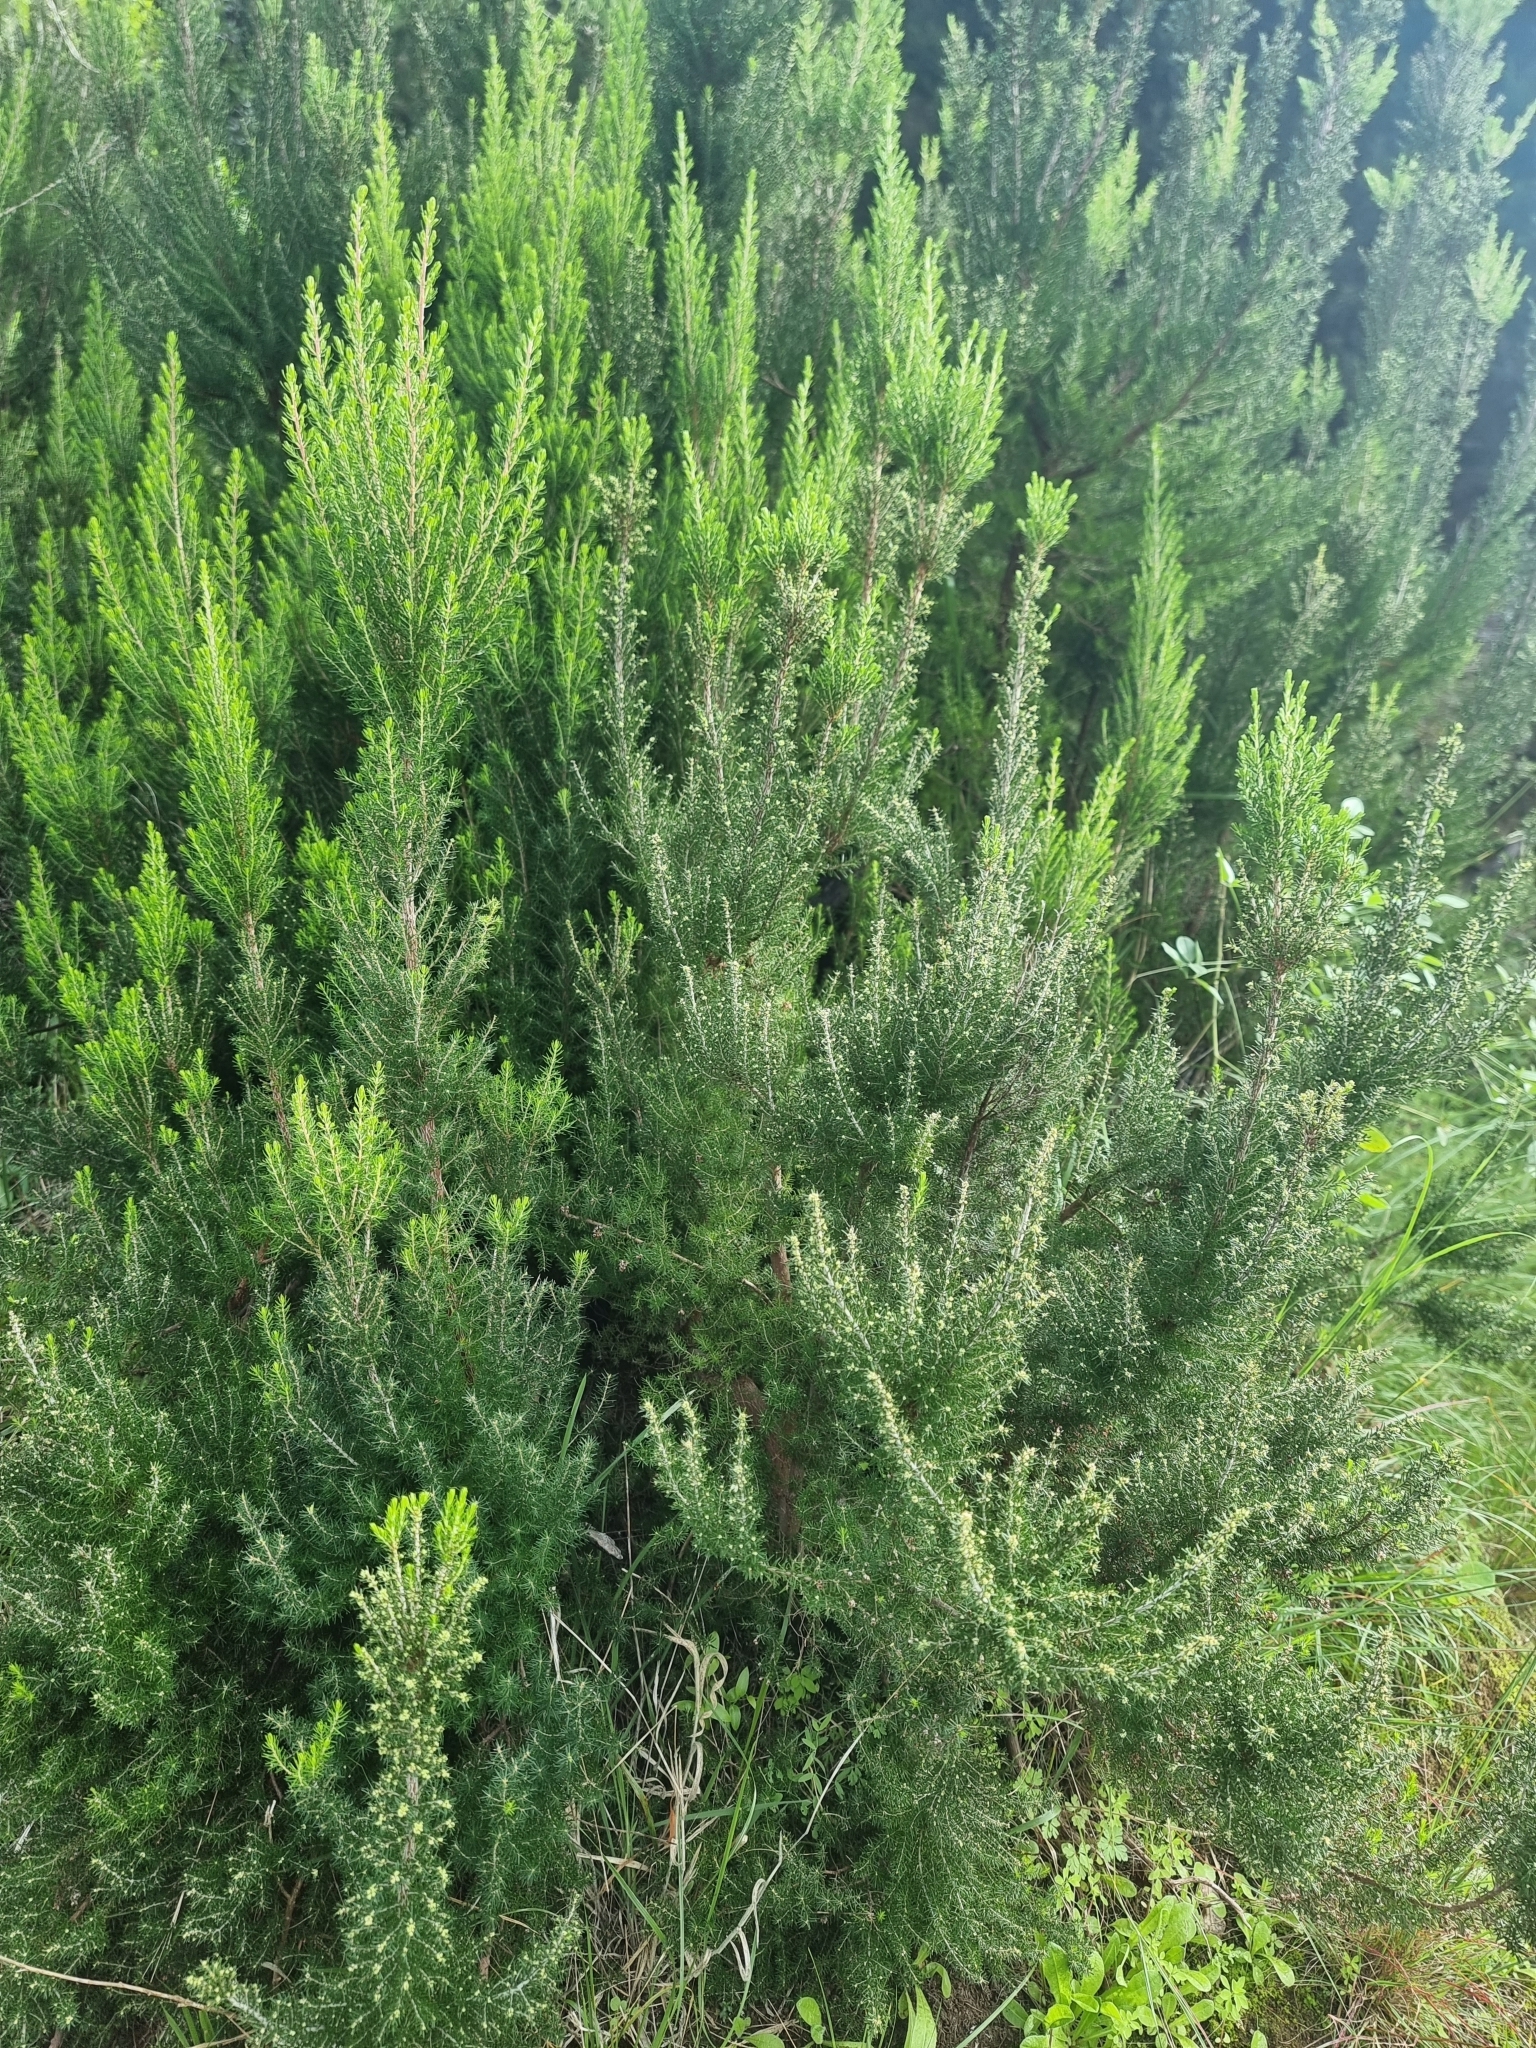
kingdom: Plantae
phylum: Tracheophyta
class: Magnoliopsida
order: Ericales
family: Ericaceae
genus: Erica
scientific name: Erica canariensis
